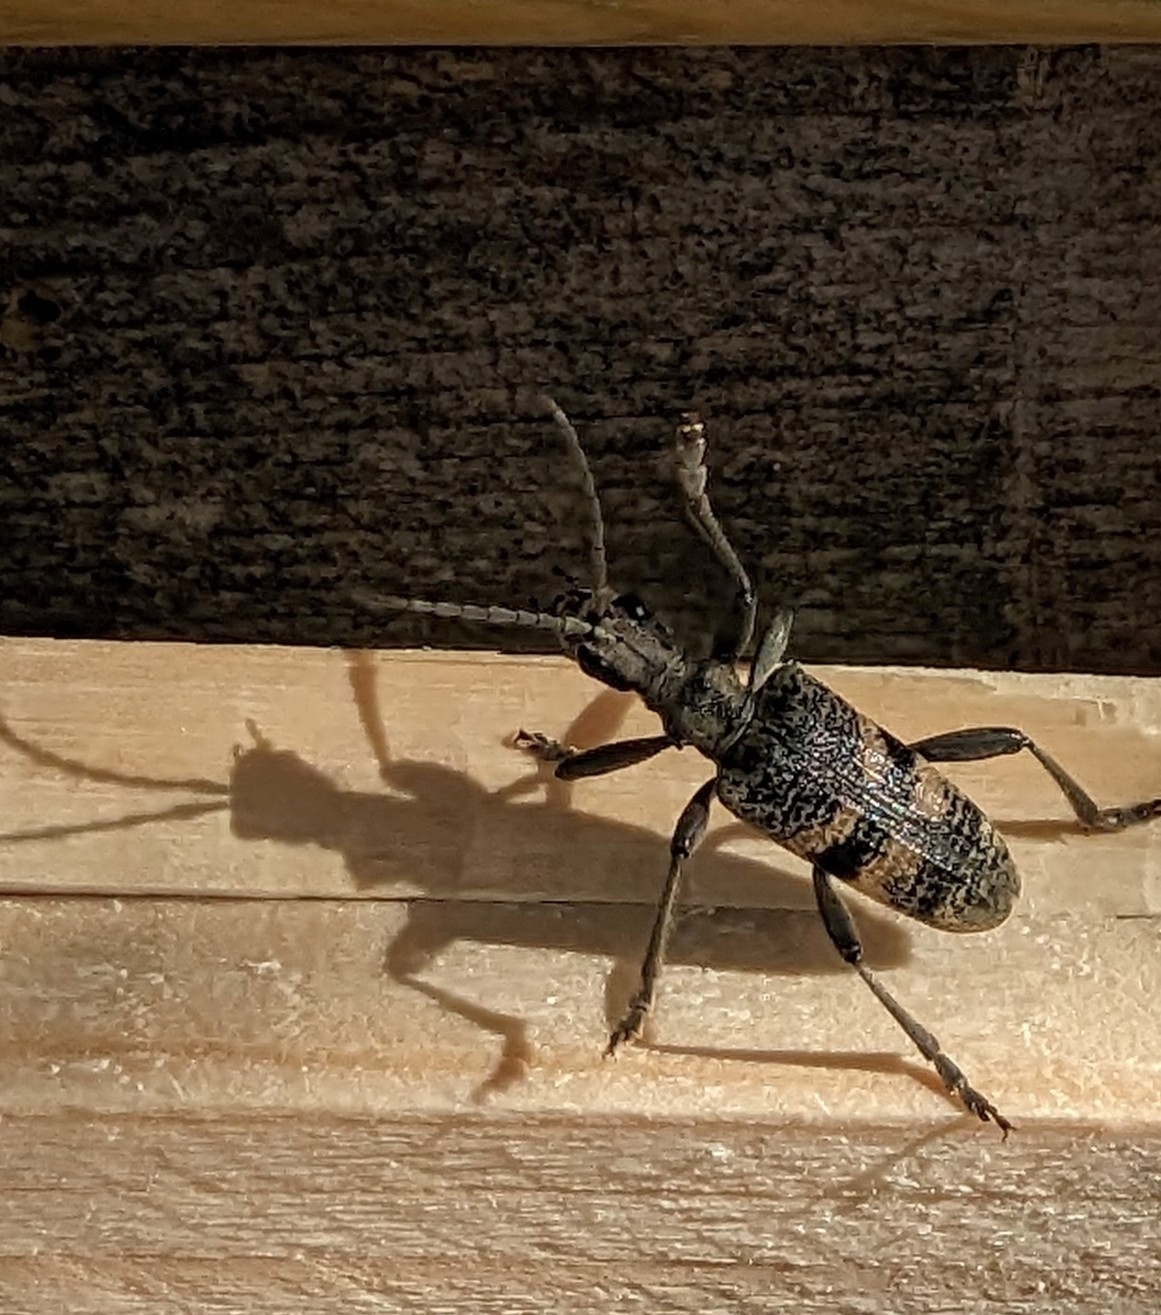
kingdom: Animalia
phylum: Arthropoda
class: Insecta
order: Coleoptera
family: Cerambycidae
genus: Rhagium
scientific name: Rhagium mordax
